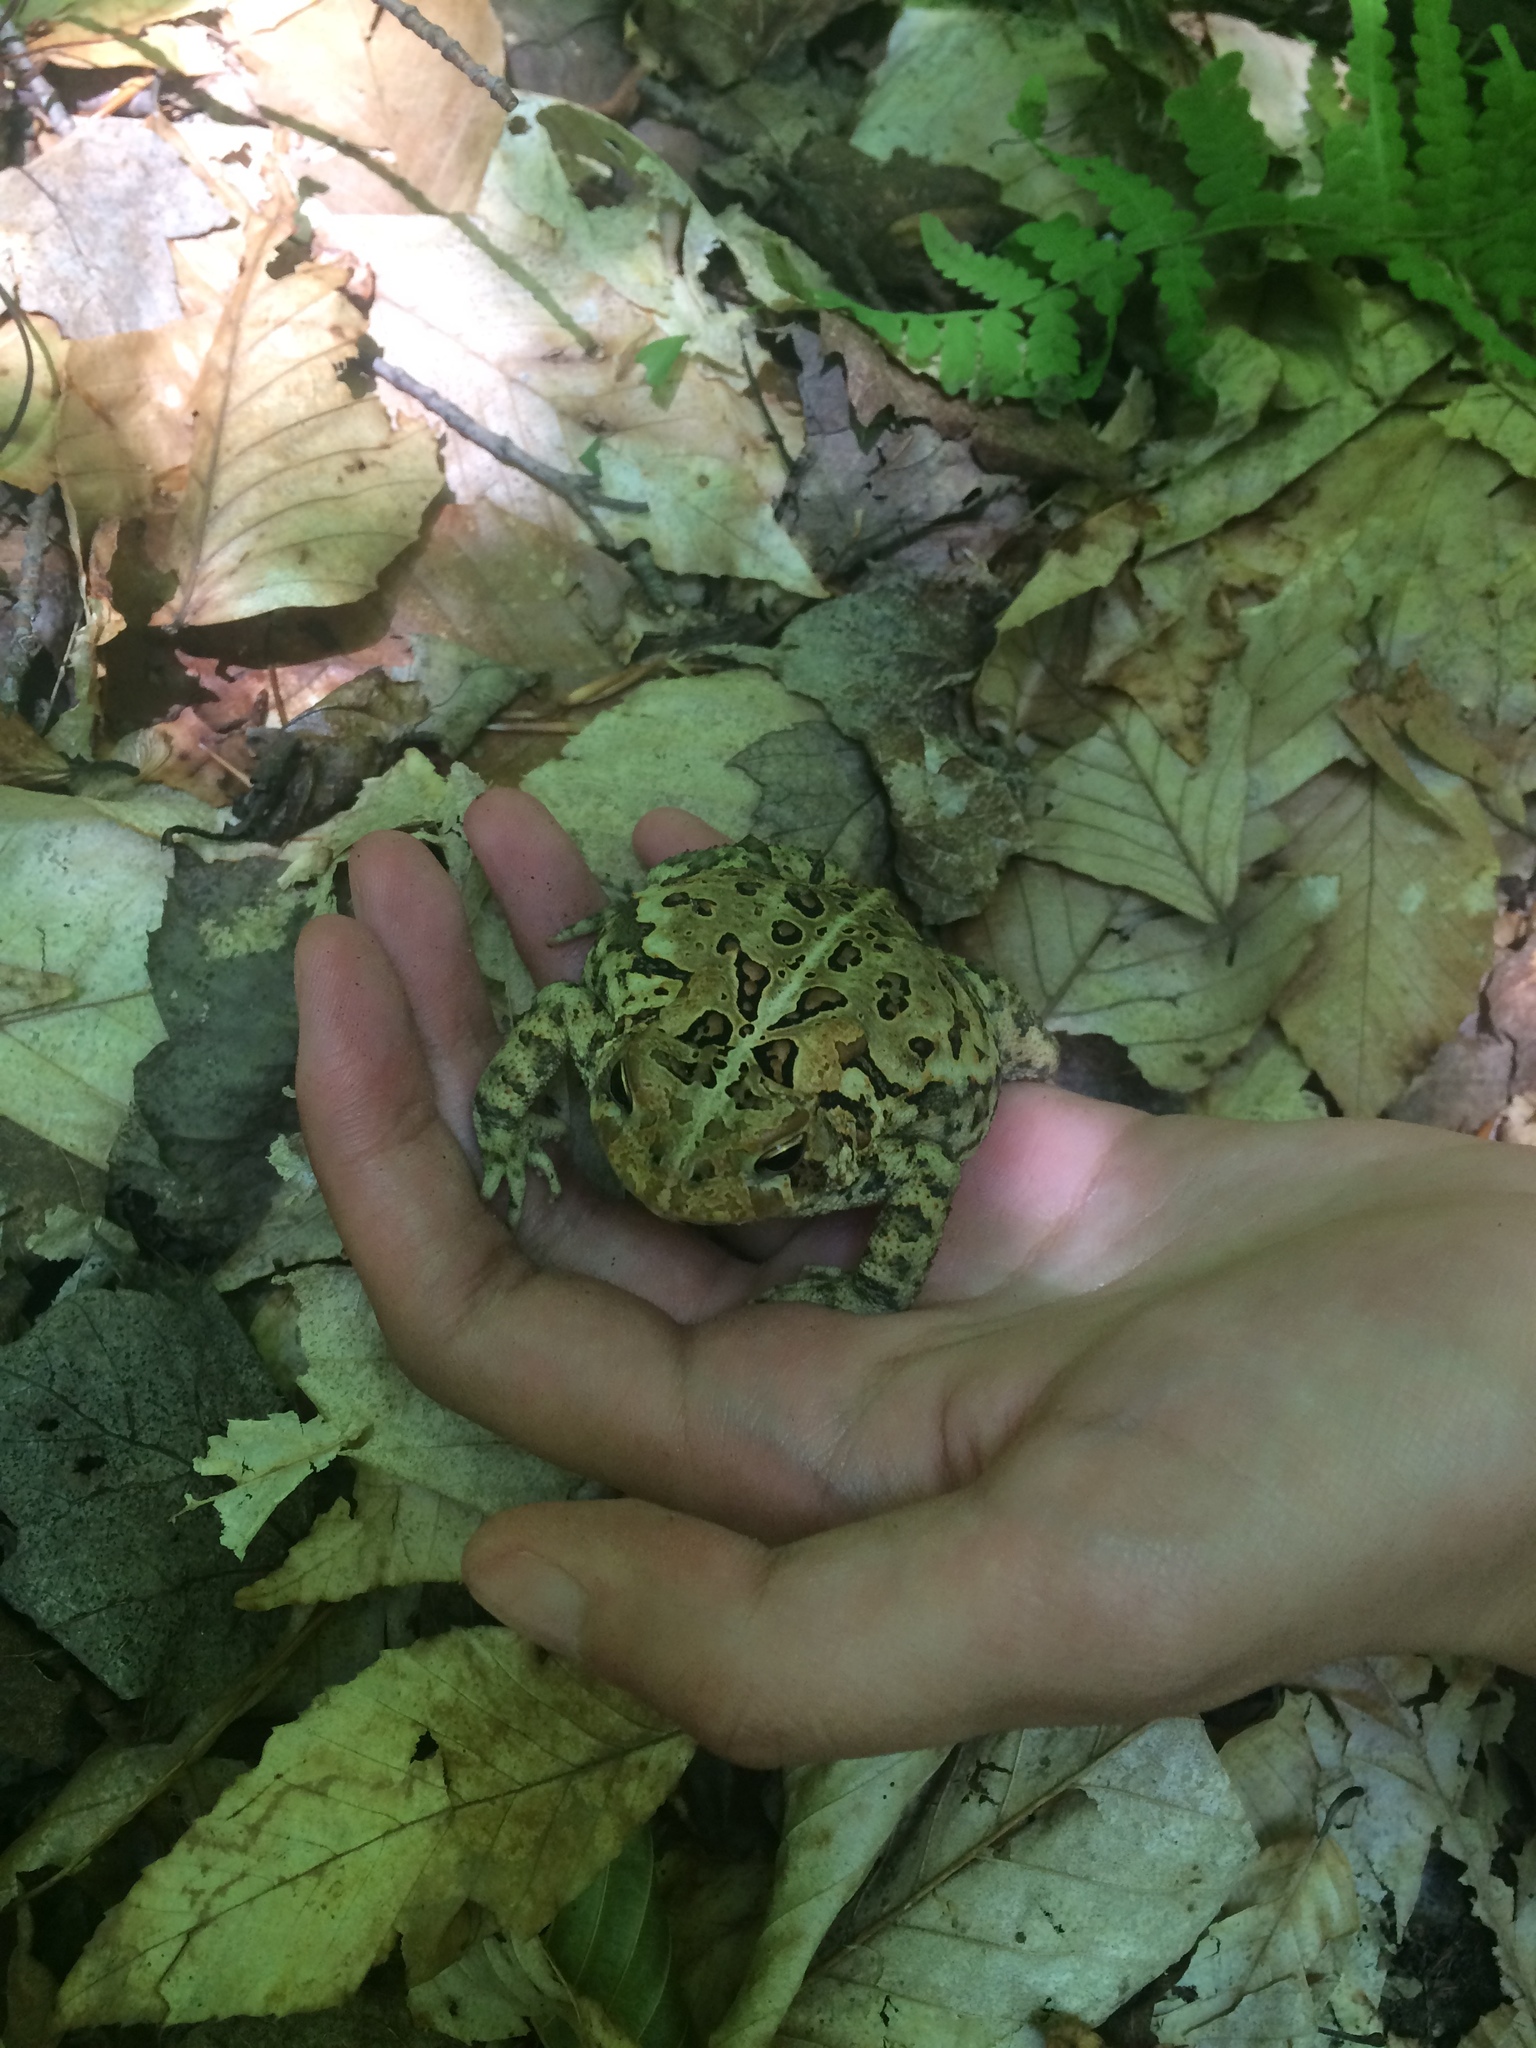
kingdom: Animalia
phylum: Chordata
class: Amphibia
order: Anura
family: Bufonidae
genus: Anaxyrus
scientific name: Anaxyrus americanus
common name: American toad
